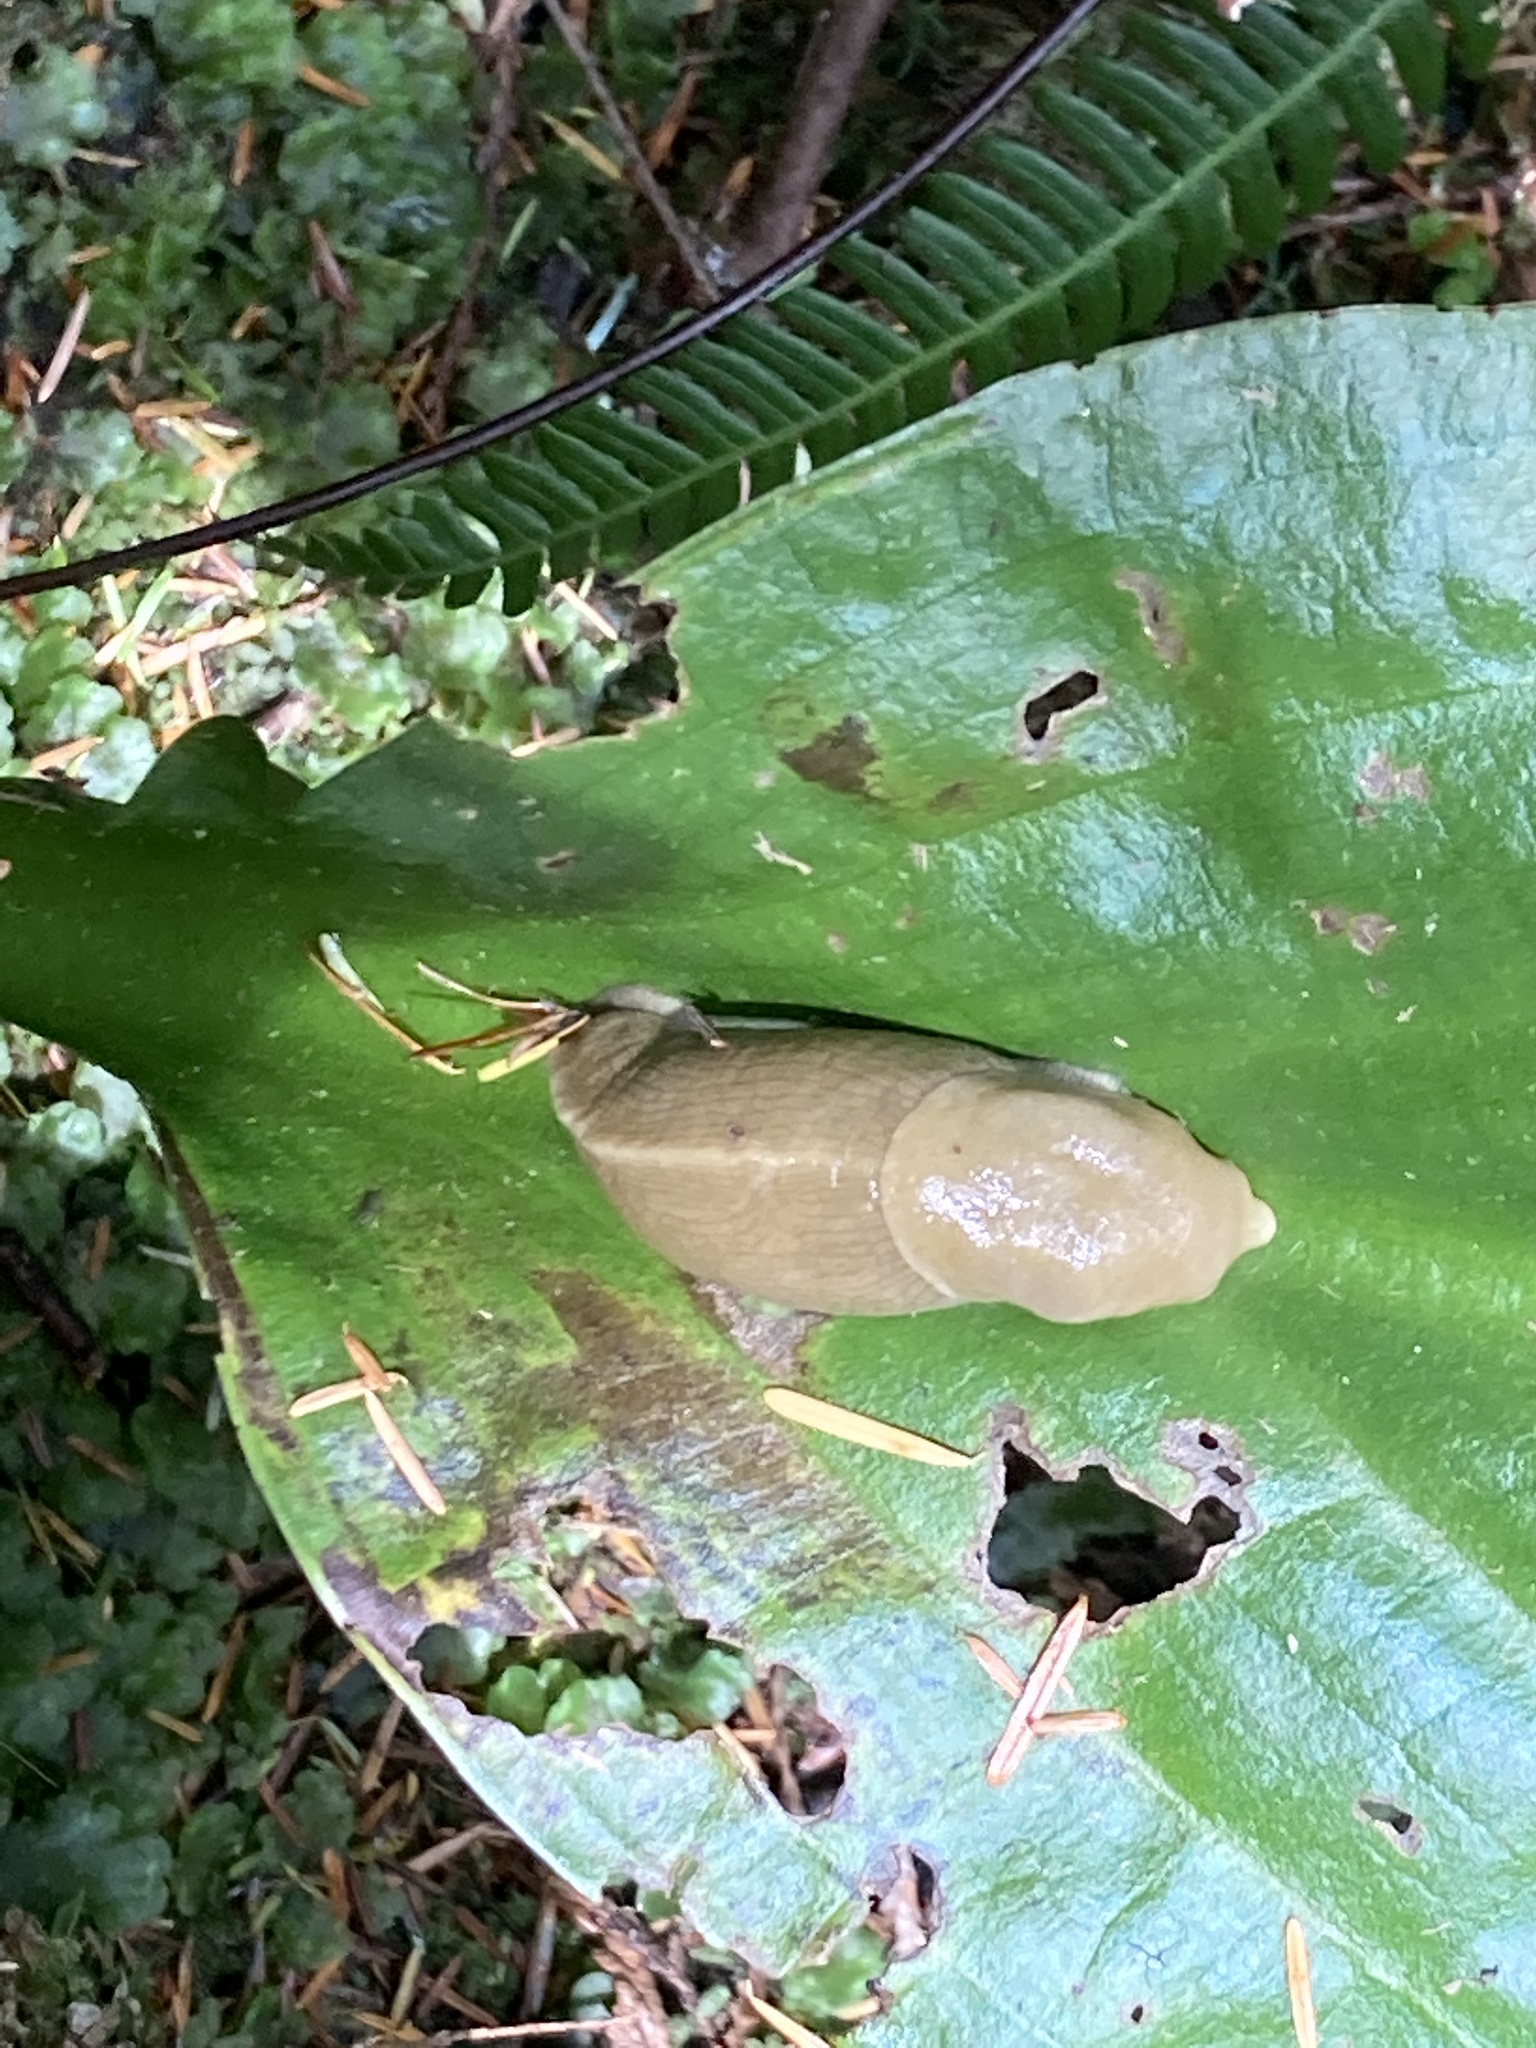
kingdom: Animalia
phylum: Mollusca
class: Gastropoda
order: Stylommatophora
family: Ariolimacidae
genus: Ariolimax
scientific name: Ariolimax columbianus
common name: Pacific banana slug
